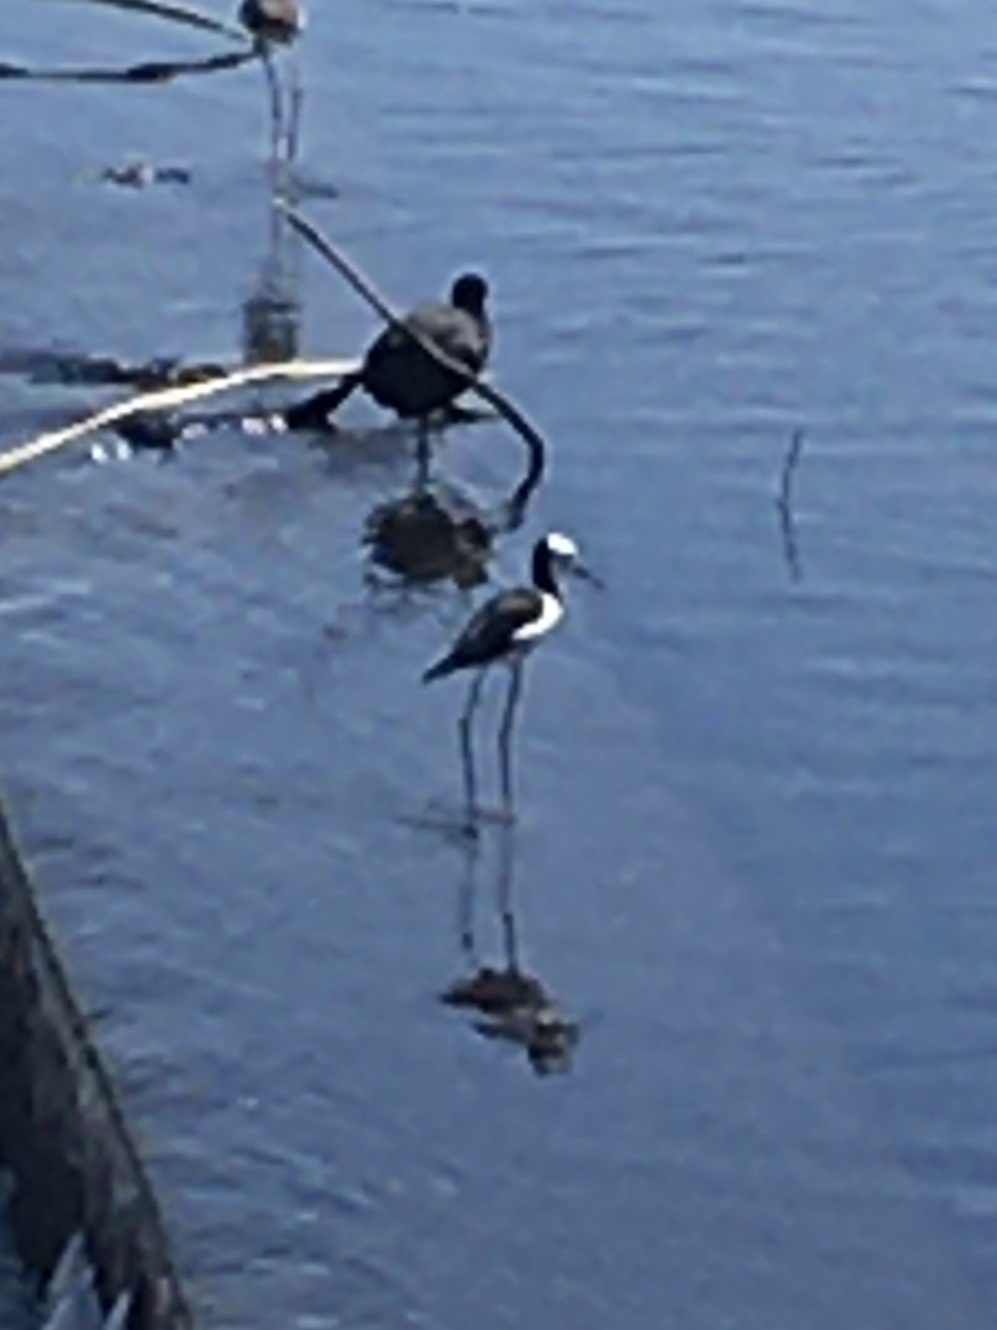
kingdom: Animalia
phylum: Chordata
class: Aves
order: Charadriiformes
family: Recurvirostridae
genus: Himantopus
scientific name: Himantopus leucocephalus
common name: White-headed stilt
